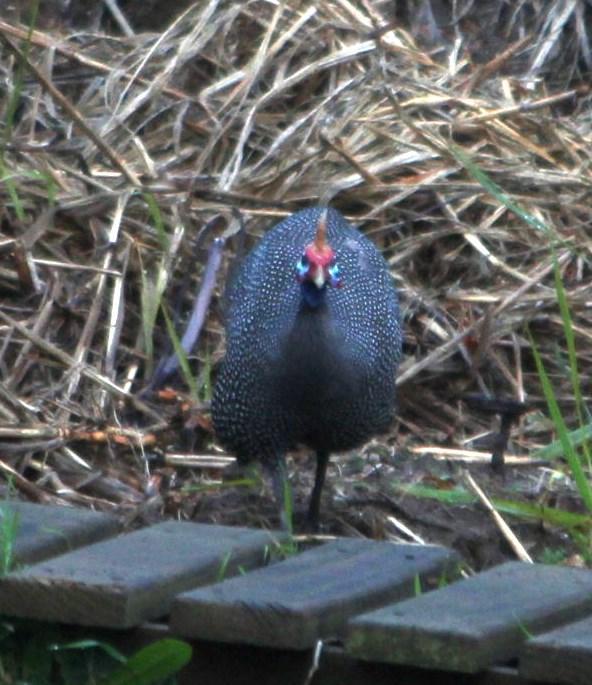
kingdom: Animalia
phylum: Chordata
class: Aves
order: Galliformes
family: Numididae
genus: Numida
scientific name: Numida meleagris
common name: Helmeted guineafowl
